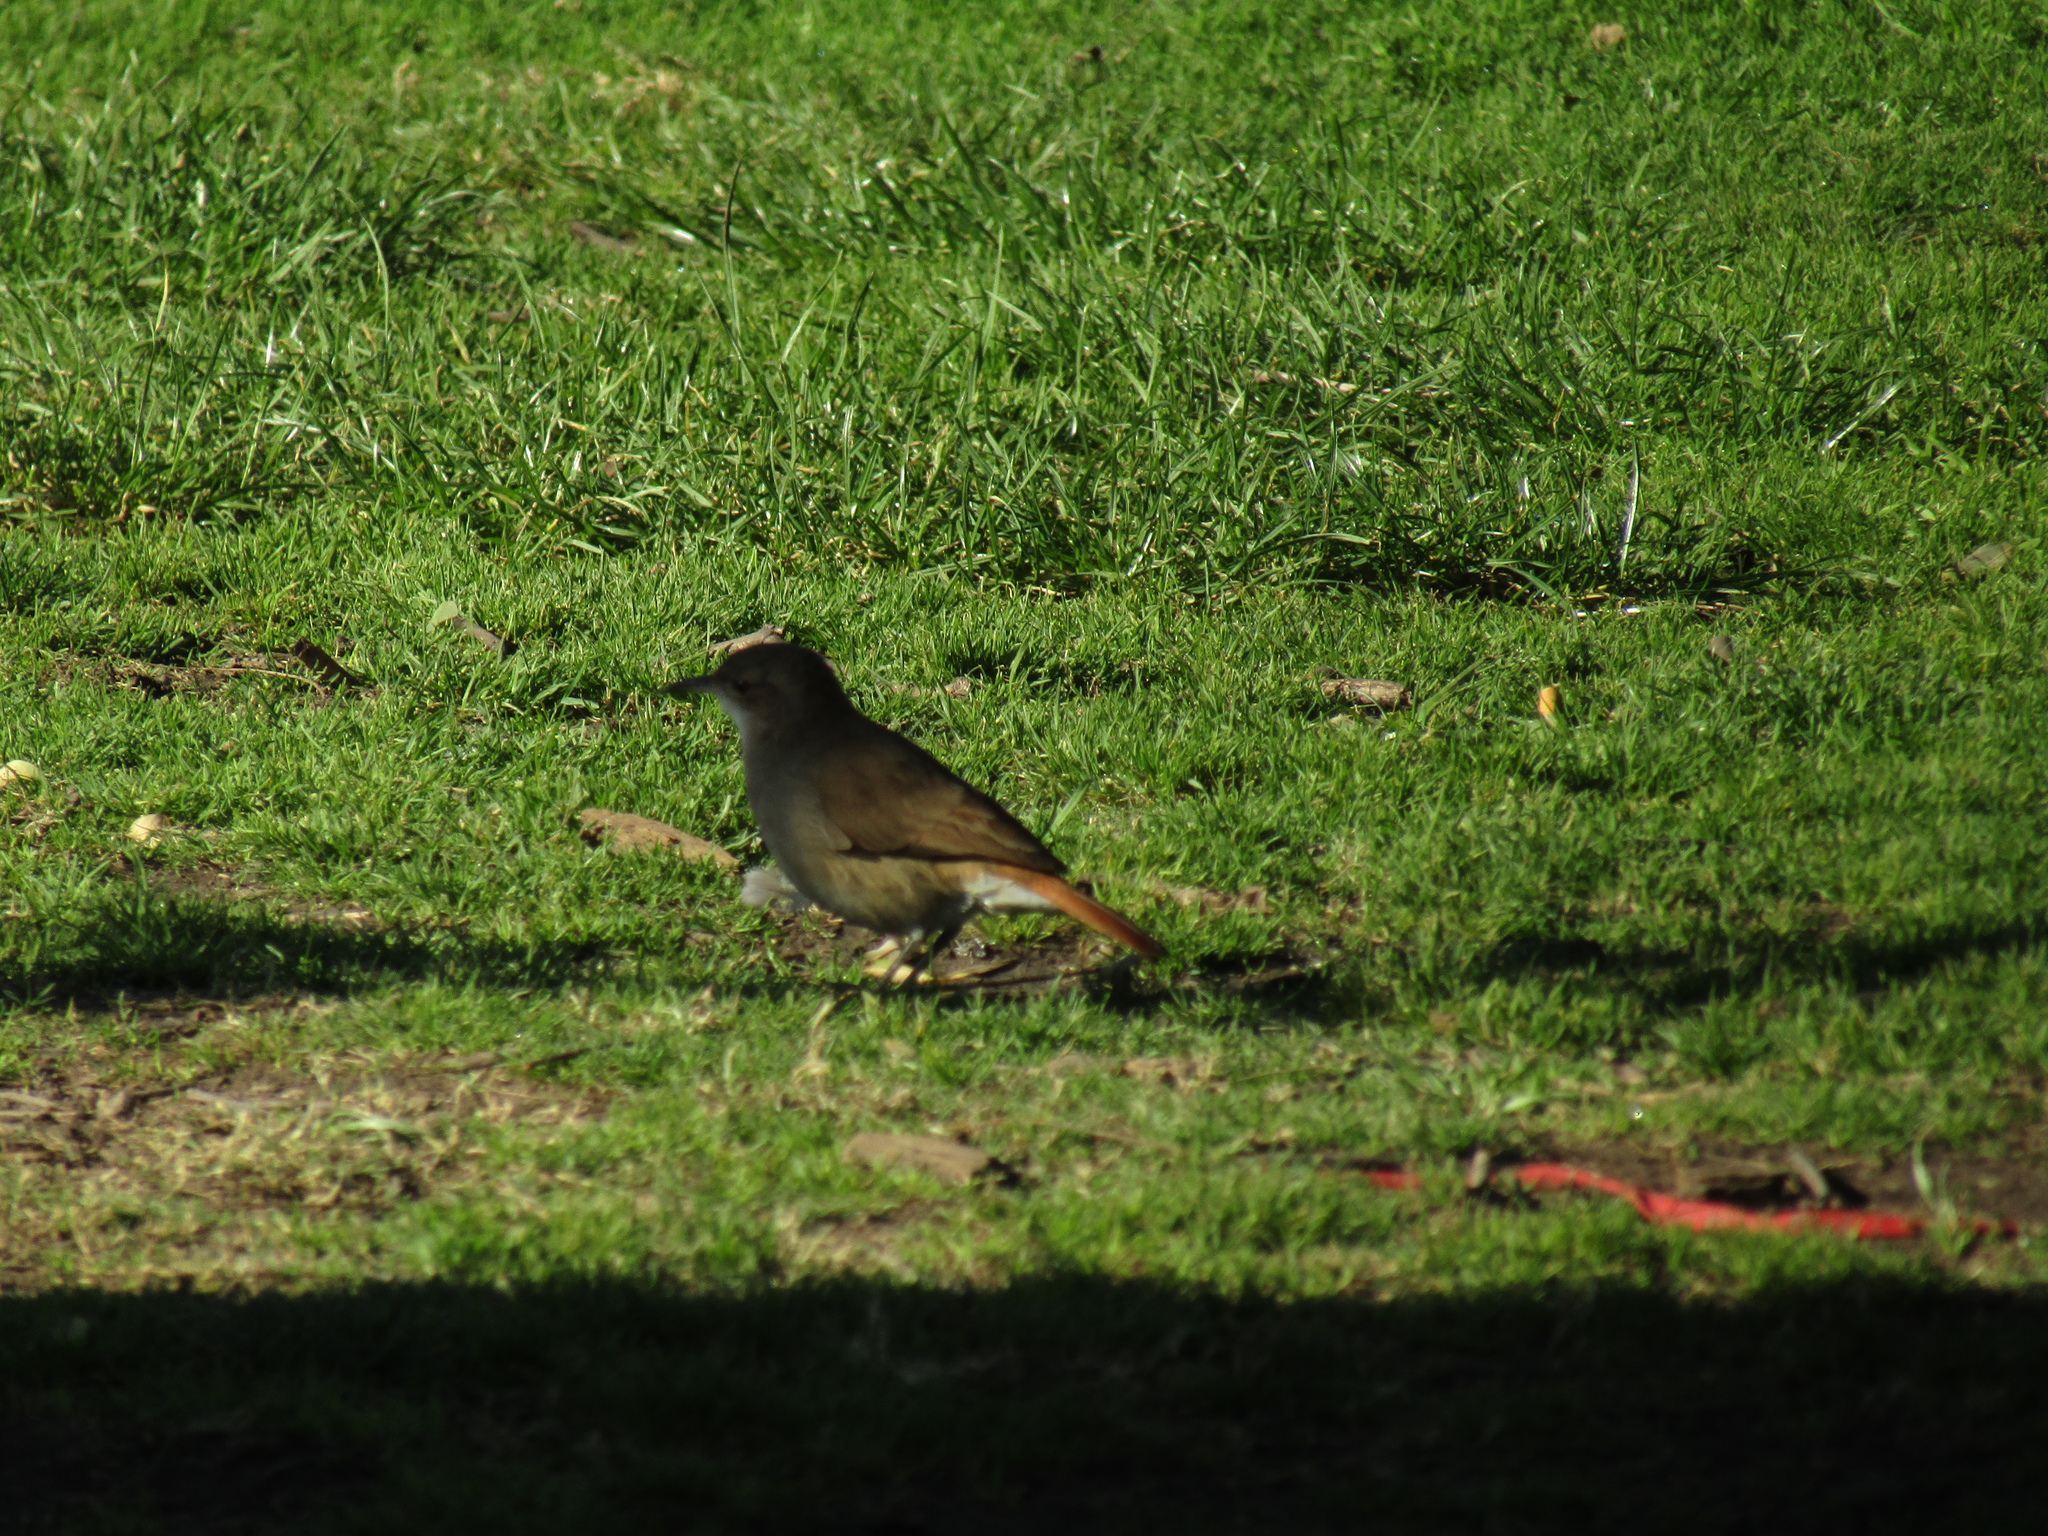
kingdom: Animalia
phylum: Chordata
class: Aves
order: Passeriformes
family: Furnariidae
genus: Furnarius
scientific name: Furnarius rufus
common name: Rufous hornero
